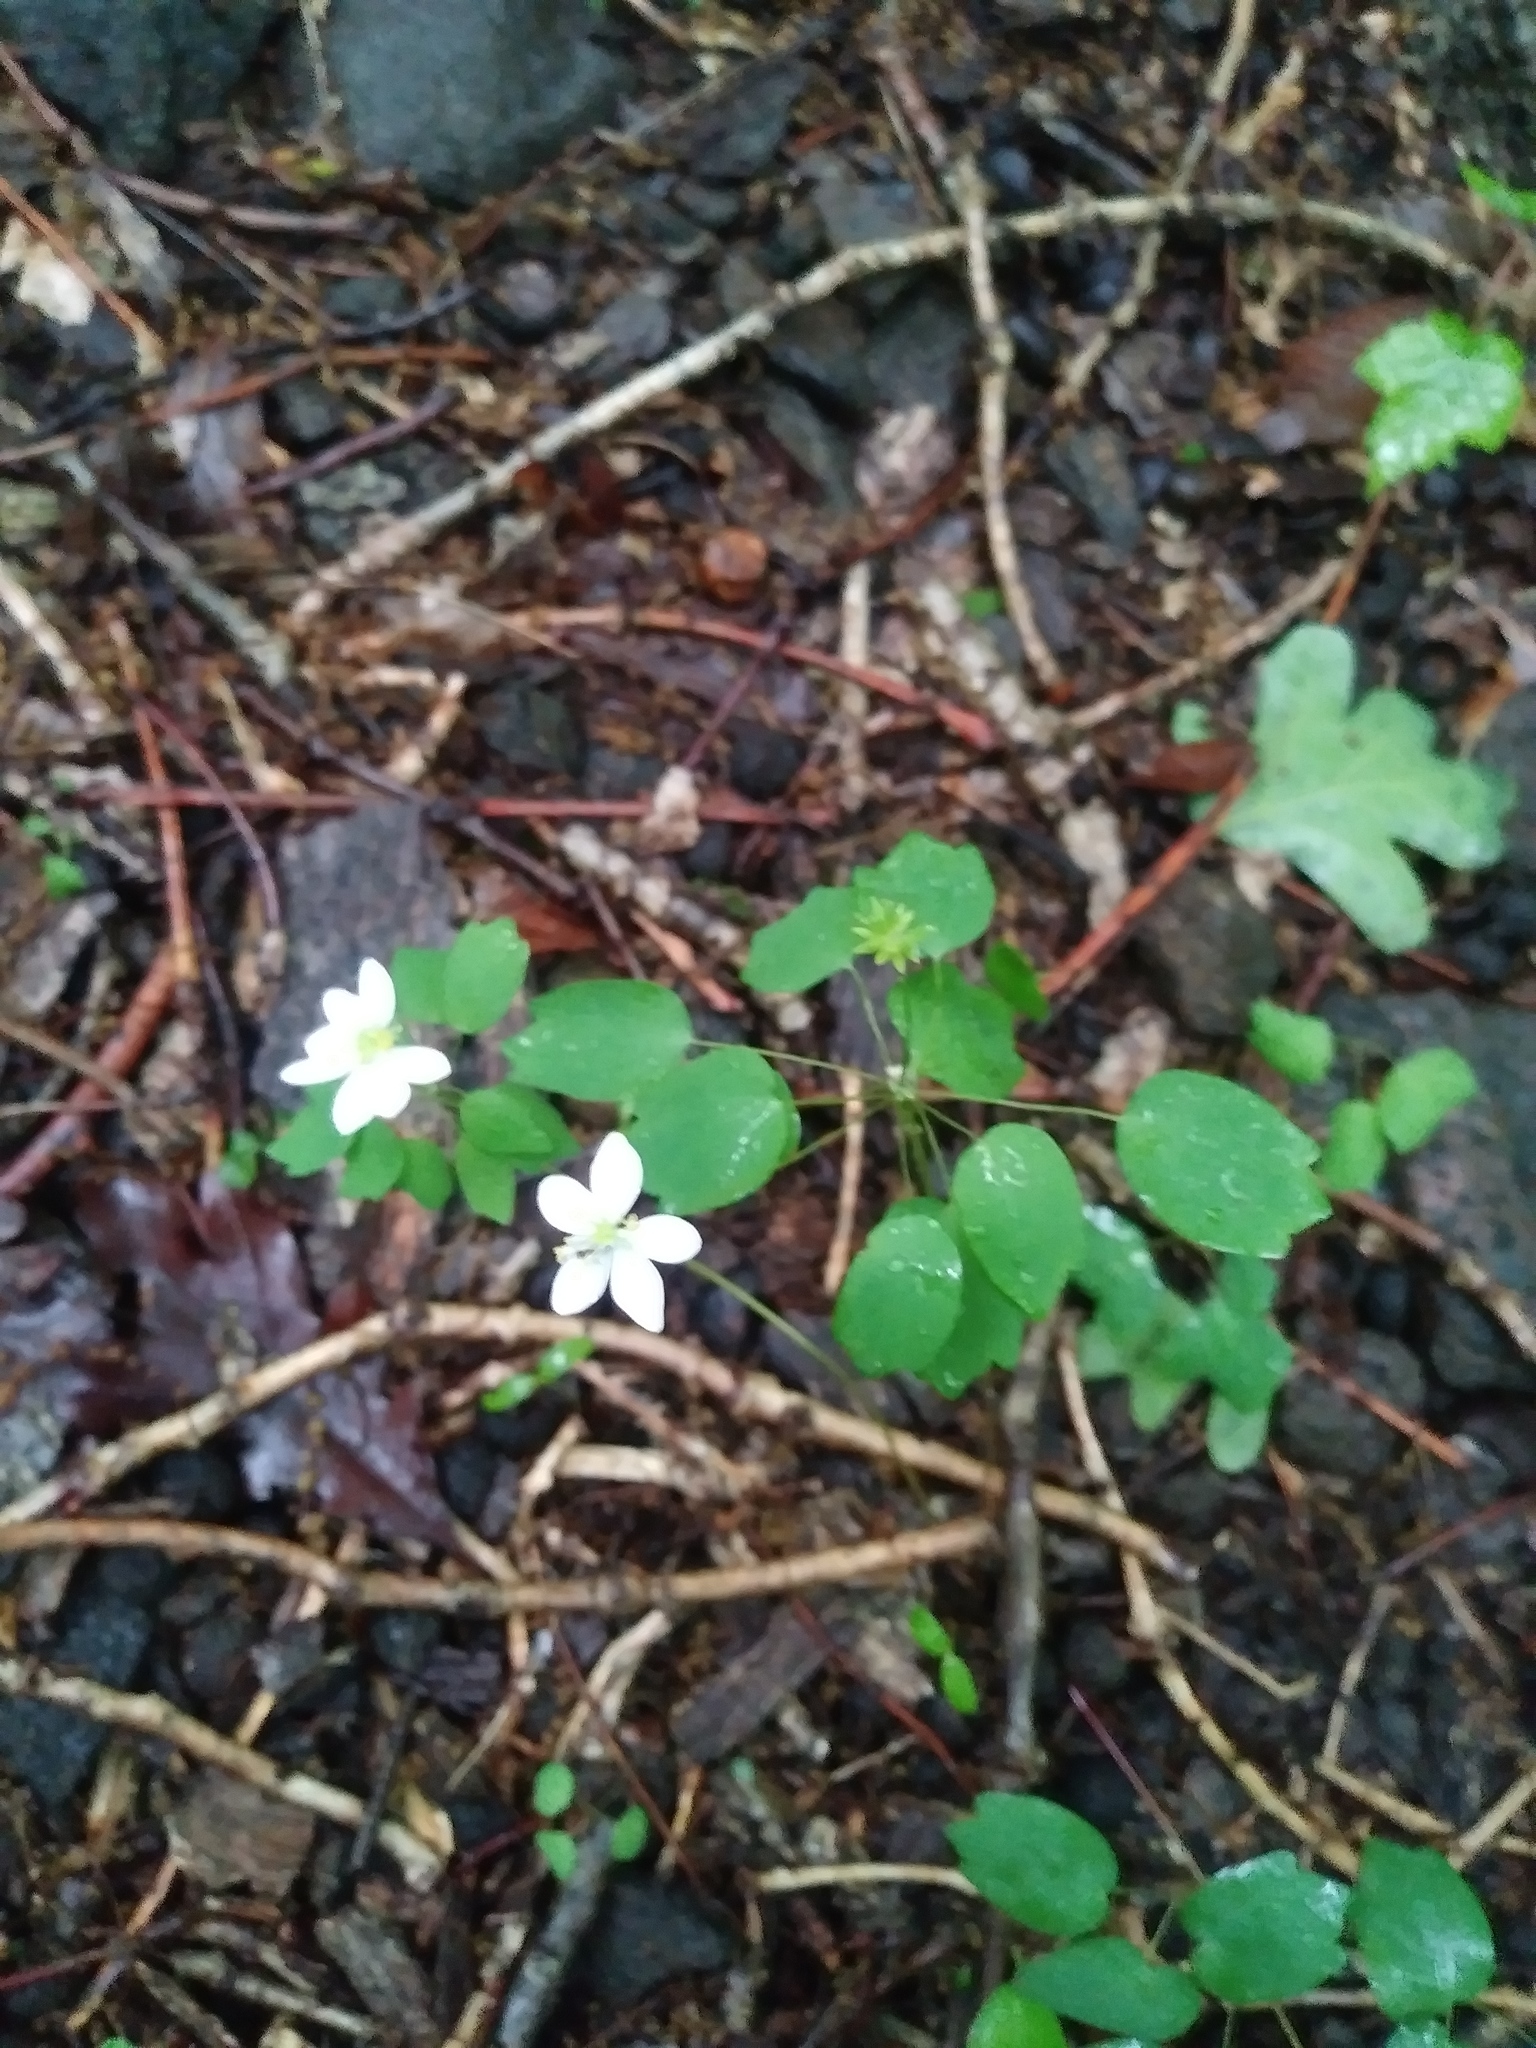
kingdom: Plantae
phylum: Tracheophyta
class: Magnoliopsida
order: Ranunculales
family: Ranunculaceae
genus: Thalictrum
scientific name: Thalictrum thalictroides
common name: Rue-anemone
